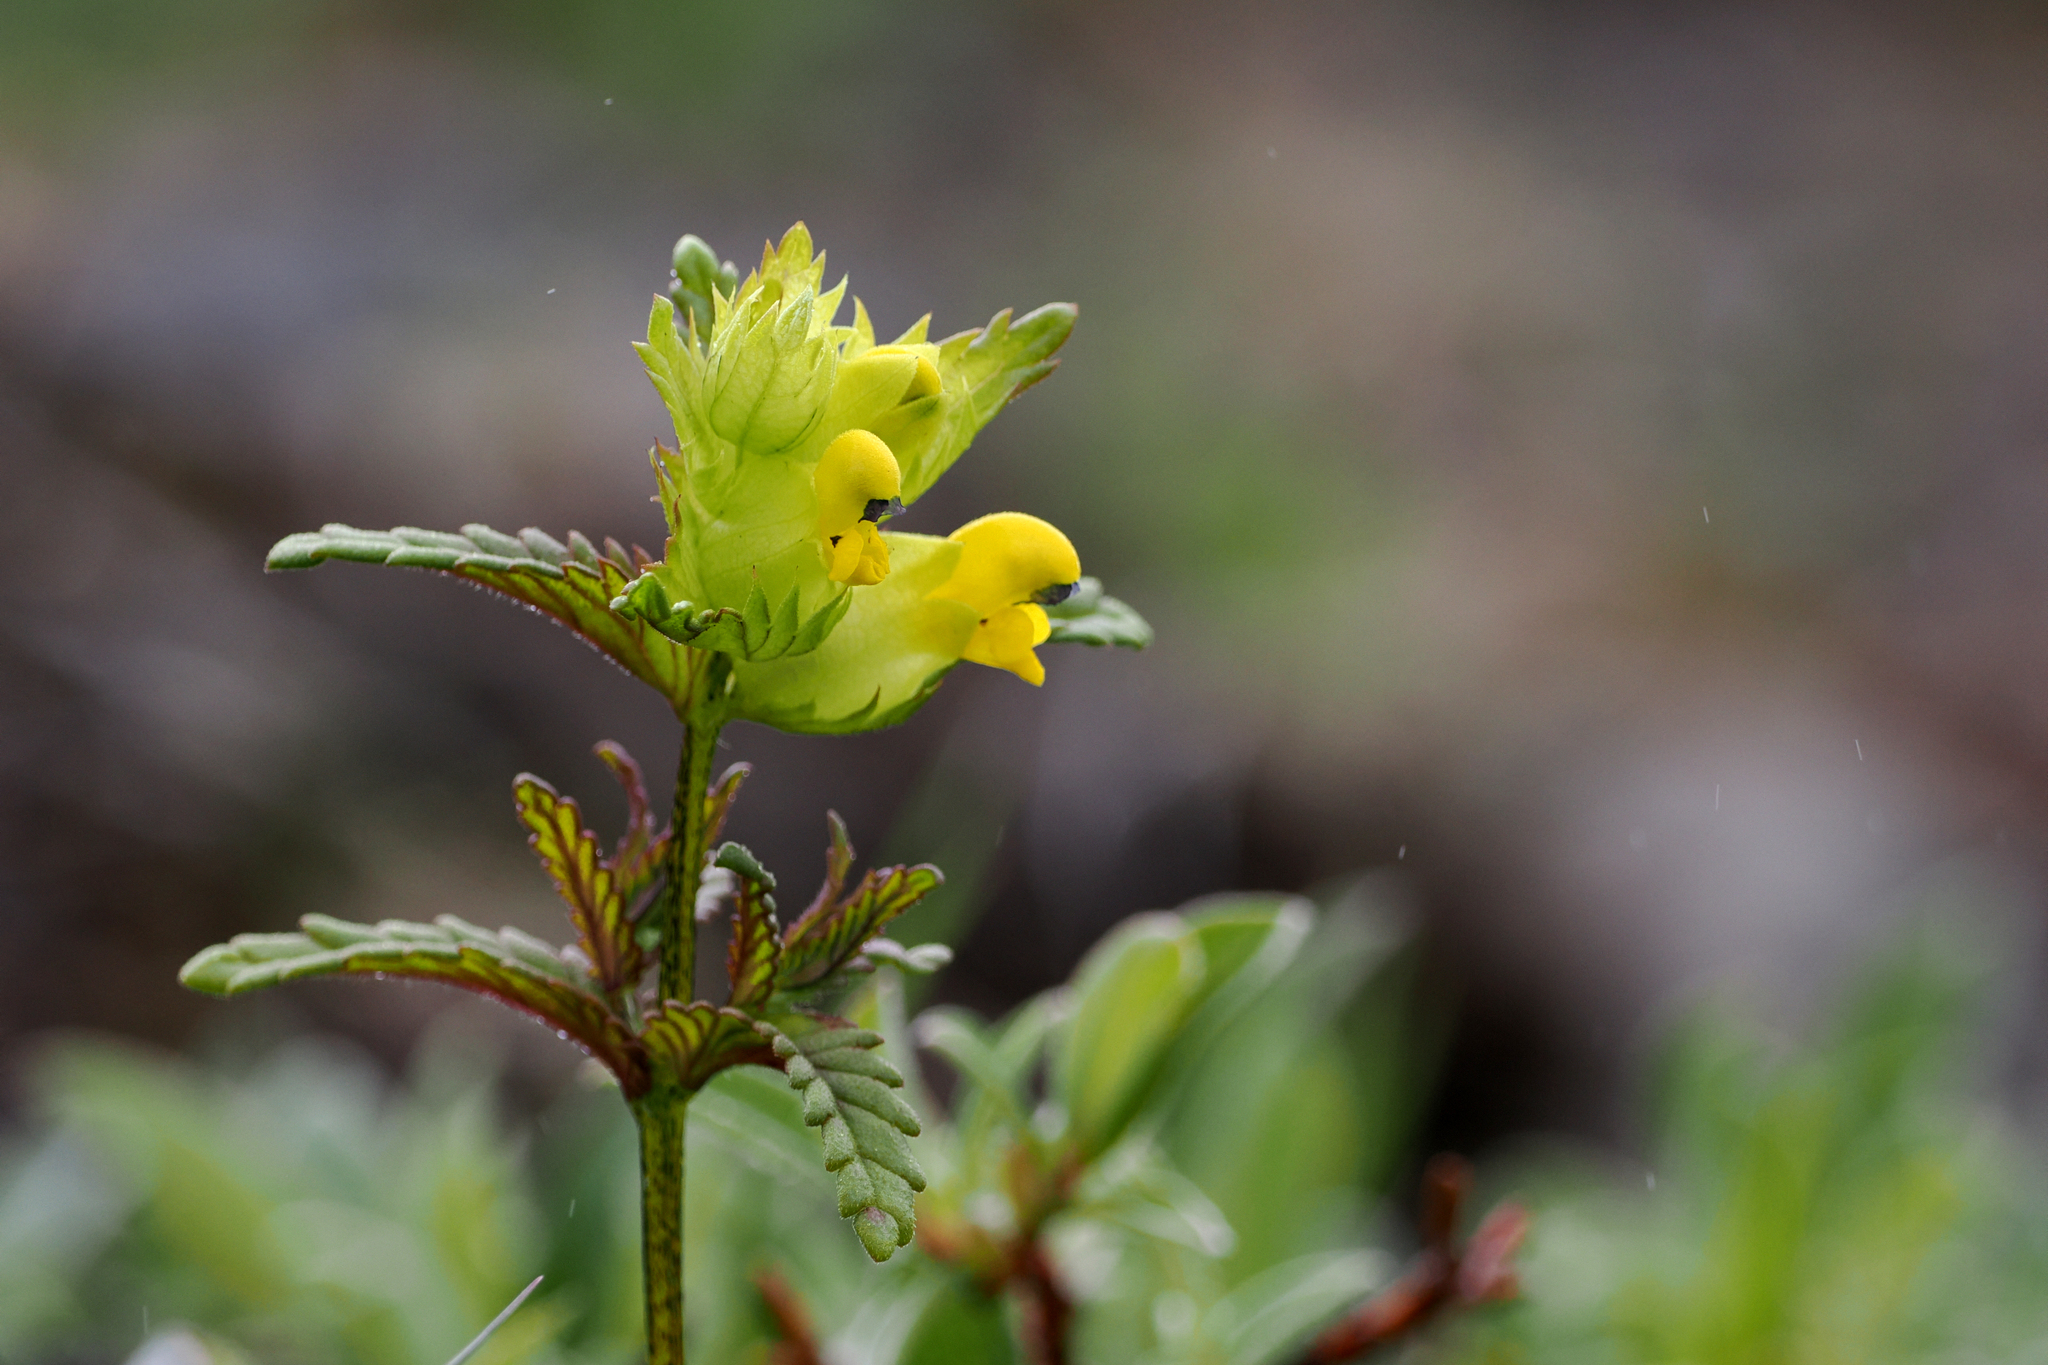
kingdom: Plantae
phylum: Tracheophyta
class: Magnoliopsida
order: Lamiales
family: Orobanchaceae
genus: Rhinanthus
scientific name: Rhinanthus minor
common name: Yellow-rattle
